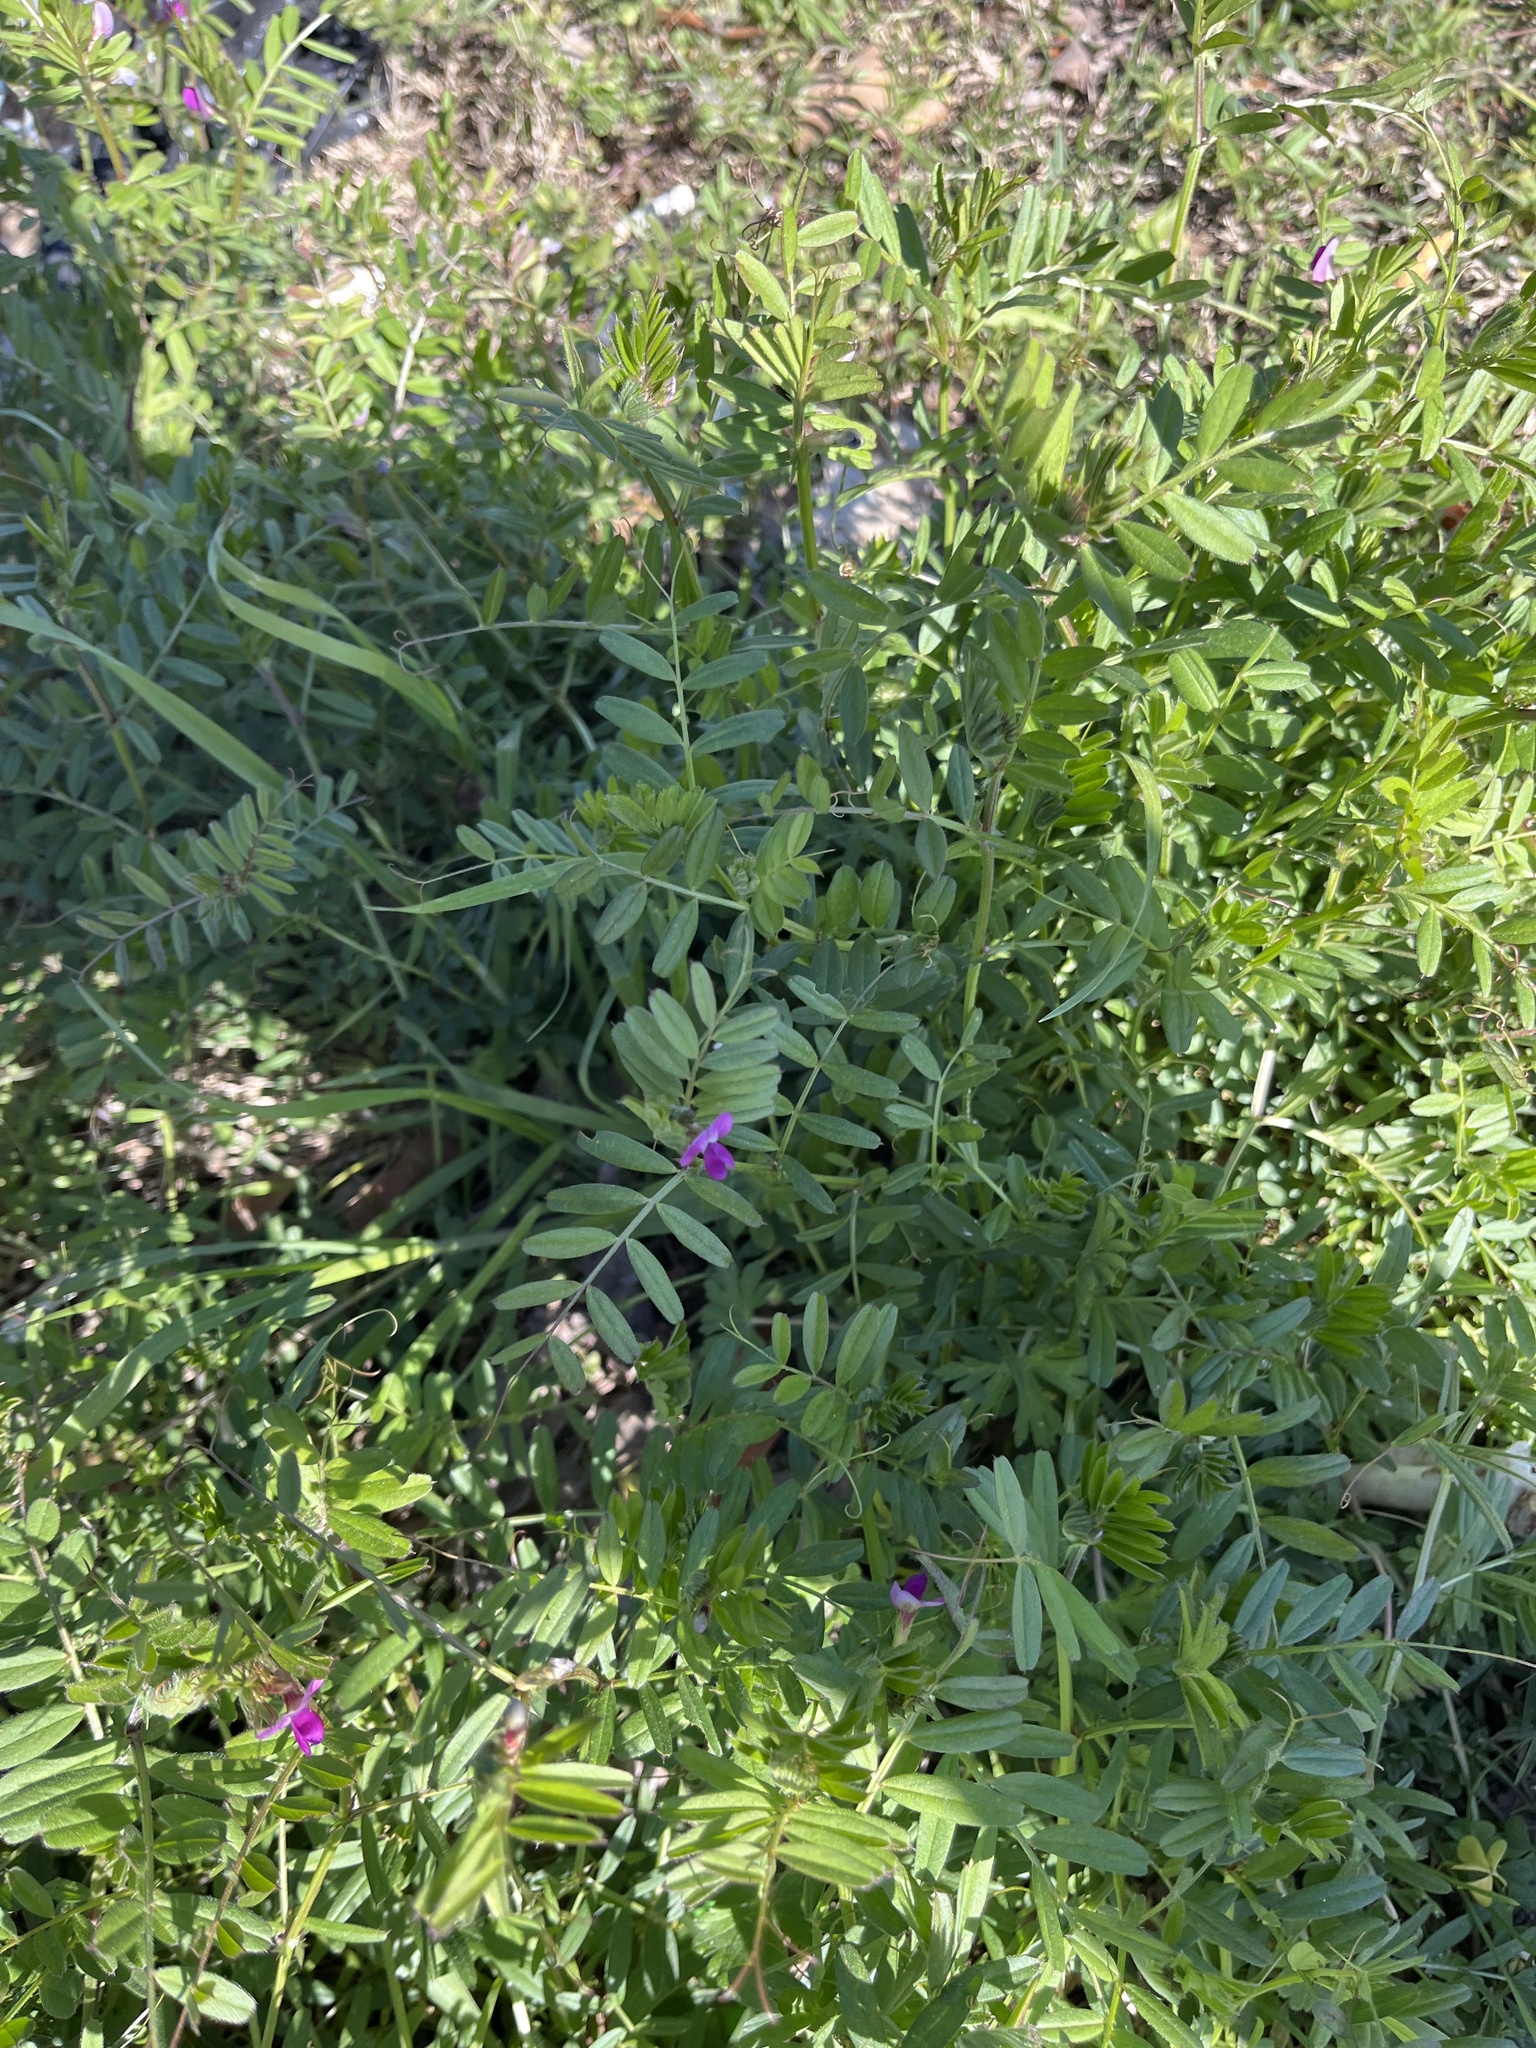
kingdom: Plantae
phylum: Tracheophyta
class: Magnoliopsida
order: Fabales
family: Fabaceae
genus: Vicia
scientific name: Vicia sativa
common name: Garden vetch
